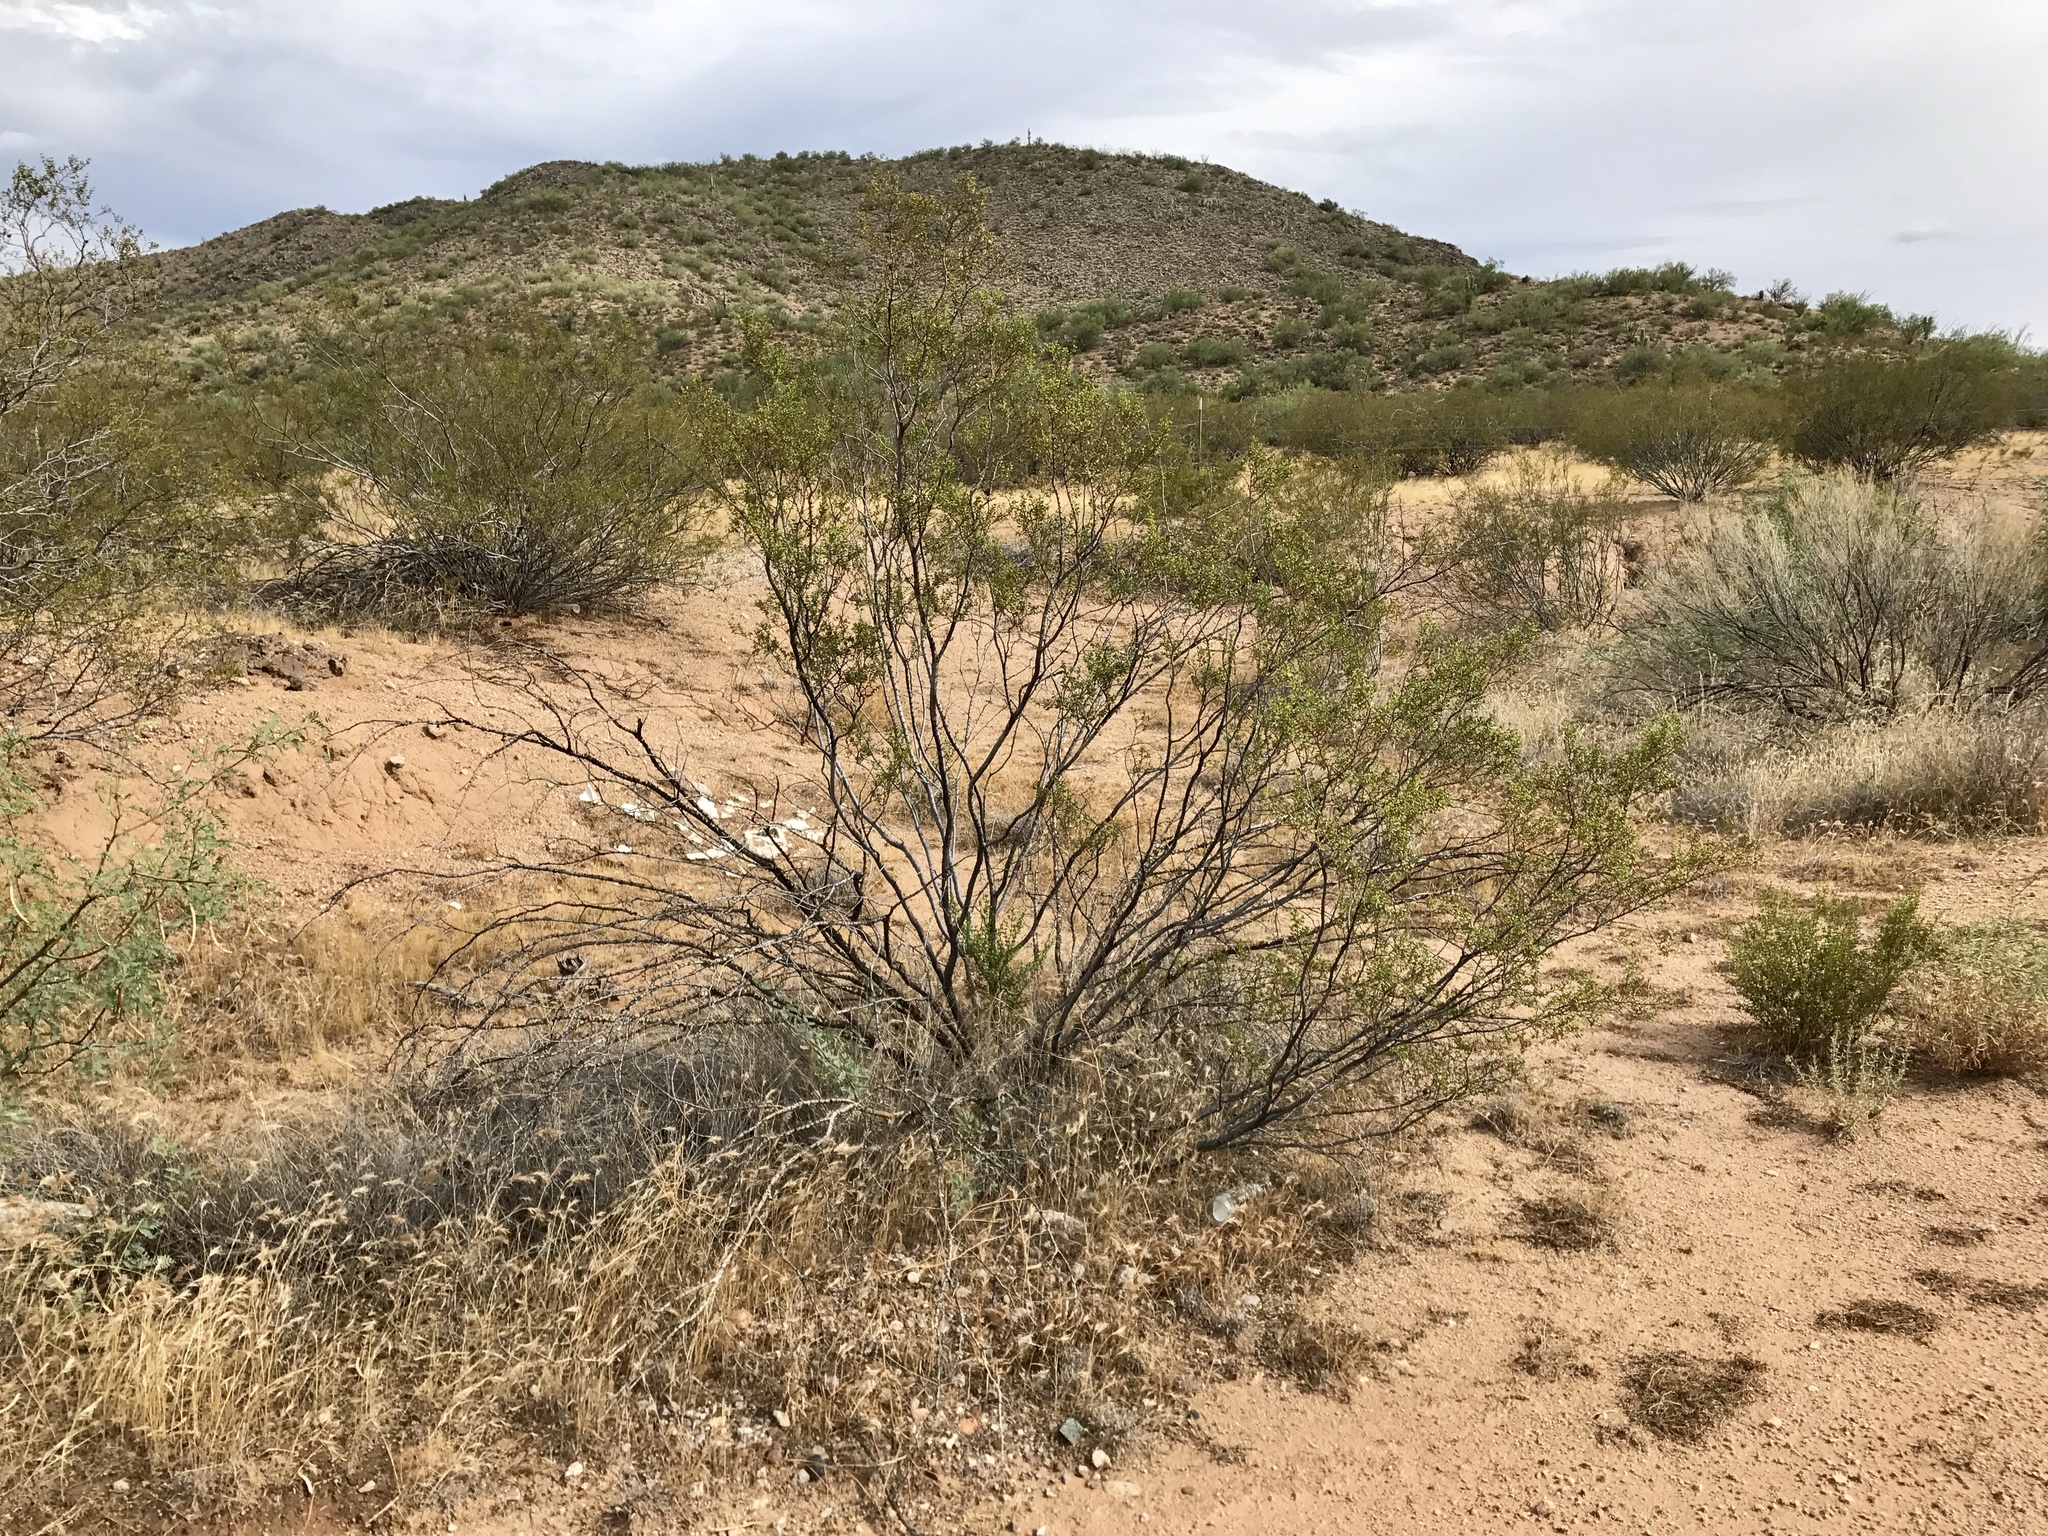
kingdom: Plantae
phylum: Tracheophyta
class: Magnoliopsida
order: Zygophyllales
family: Zygophyllaceae
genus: Larrea
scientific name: Larrea tridentata
